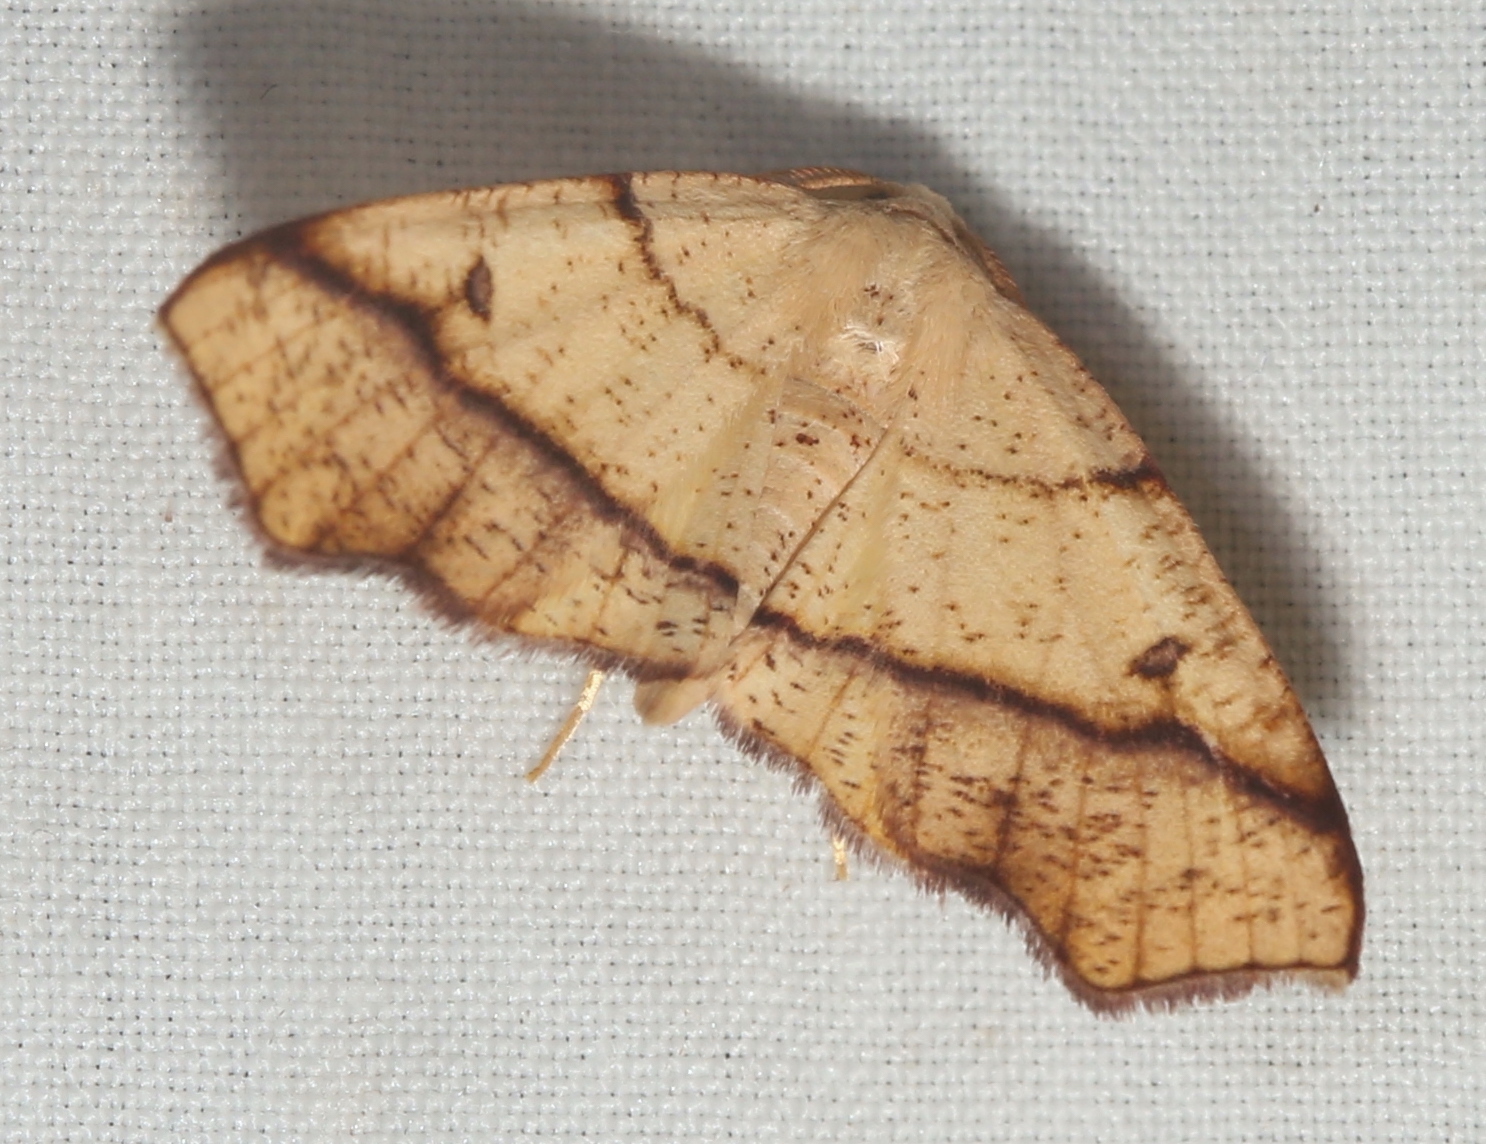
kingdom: Animalia
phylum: Arthropoda
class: Insecta
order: Lepidoptera
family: Geometridae
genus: Plagodis
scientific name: Plagodis alcoolaria
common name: Hollow-spotted plagodis
